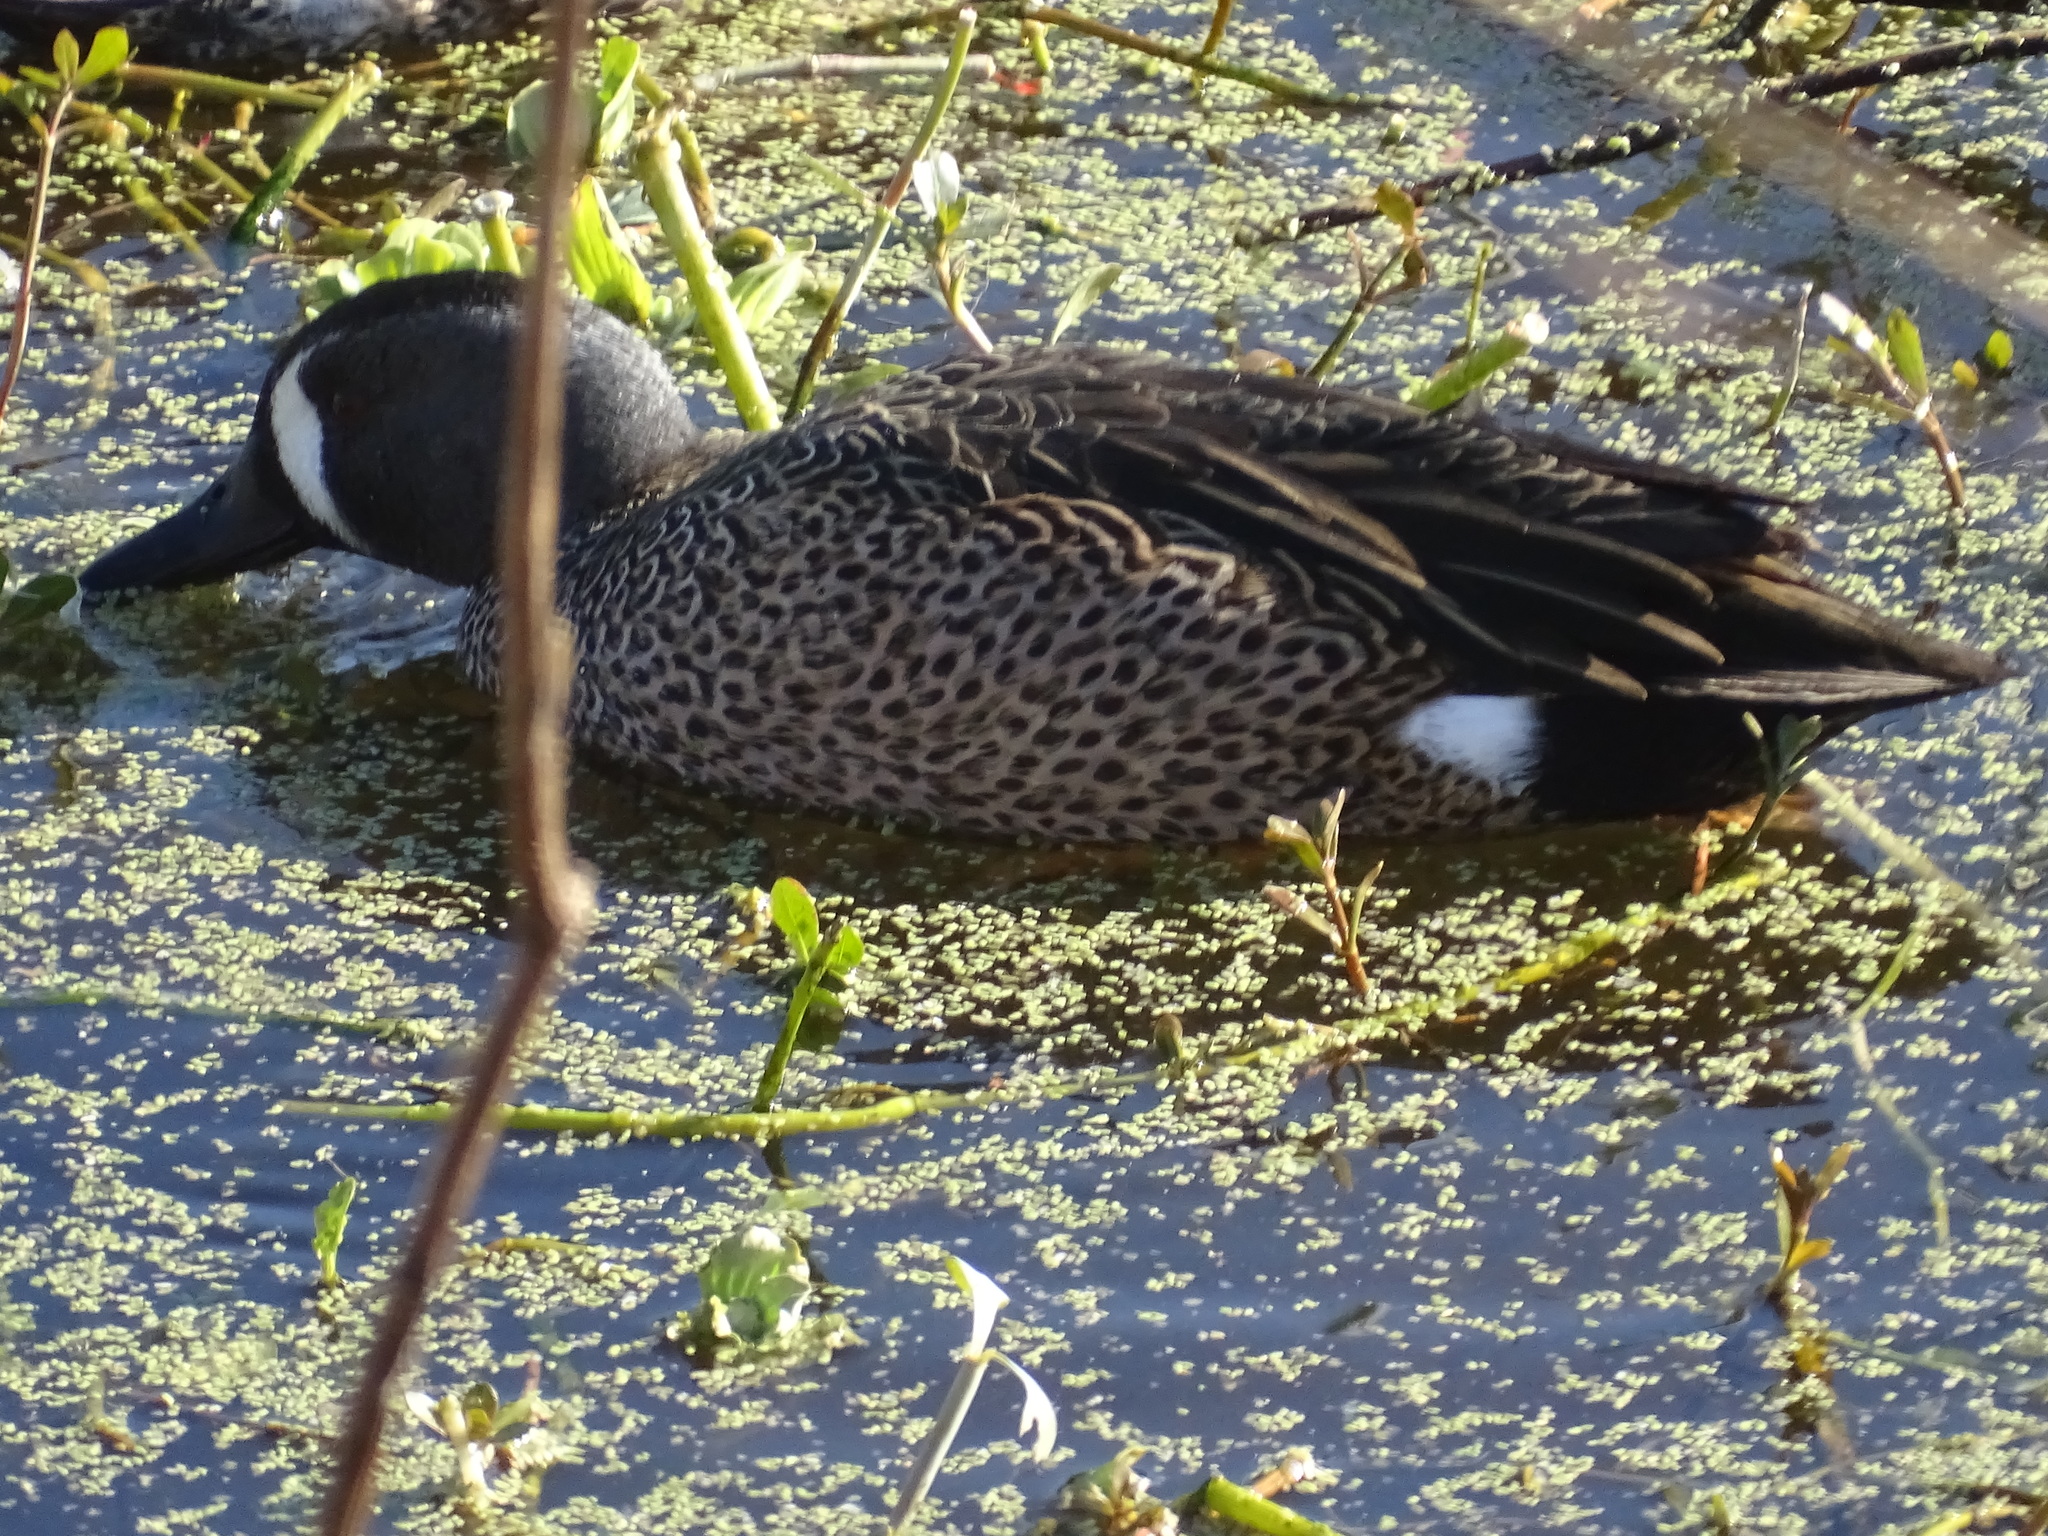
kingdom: Animalia
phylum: Chordata
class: Aves
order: Anseriformes
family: Anatidae
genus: Spatula
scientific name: Spatula discors
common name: Blue-winged teal
